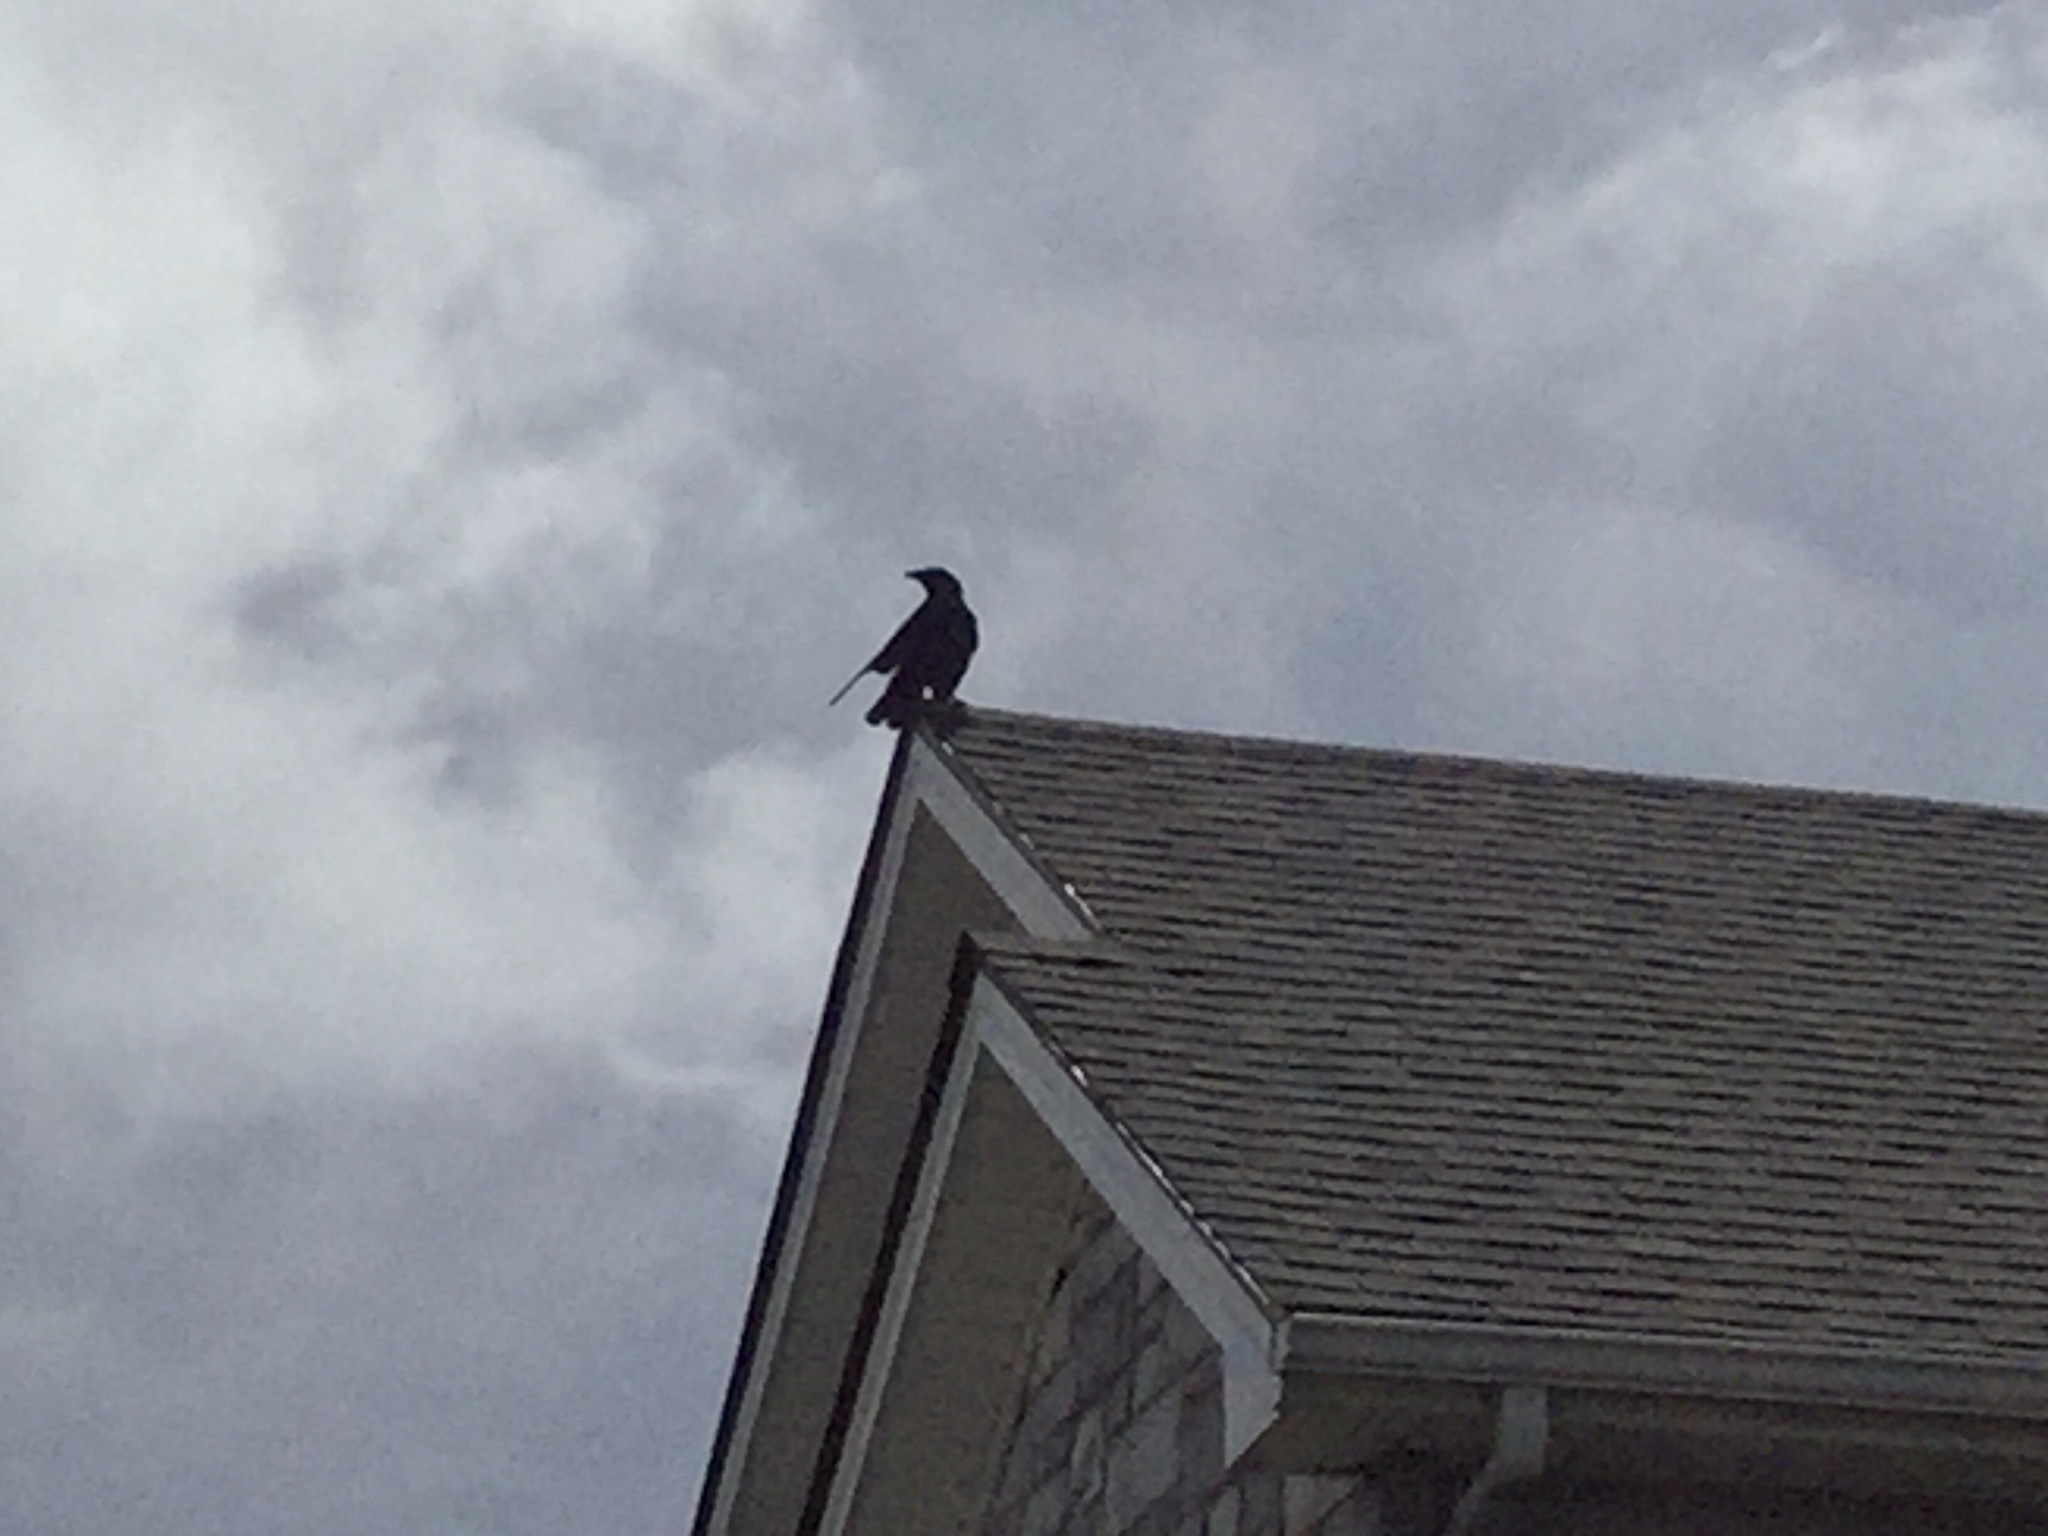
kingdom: Animalia
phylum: Chordata
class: Aves
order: Passeriformes
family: Corvidae
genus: Corvus
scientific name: Corvus brachyrhynchos
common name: American crow
